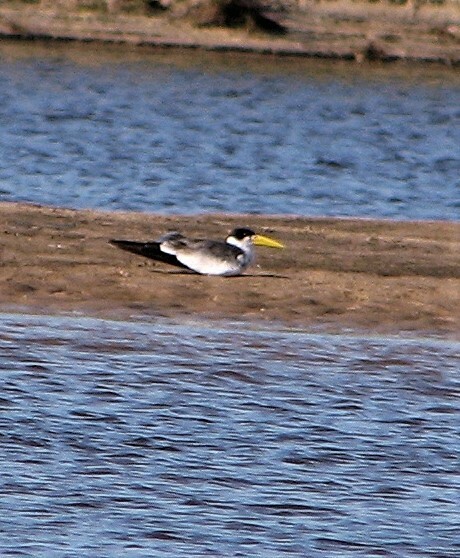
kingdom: Animalia
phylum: Chordata
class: Aves
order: Charadriiformes
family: Laridae
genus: Phaetusa
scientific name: Phaetusa simplex
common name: Large-billed tern
